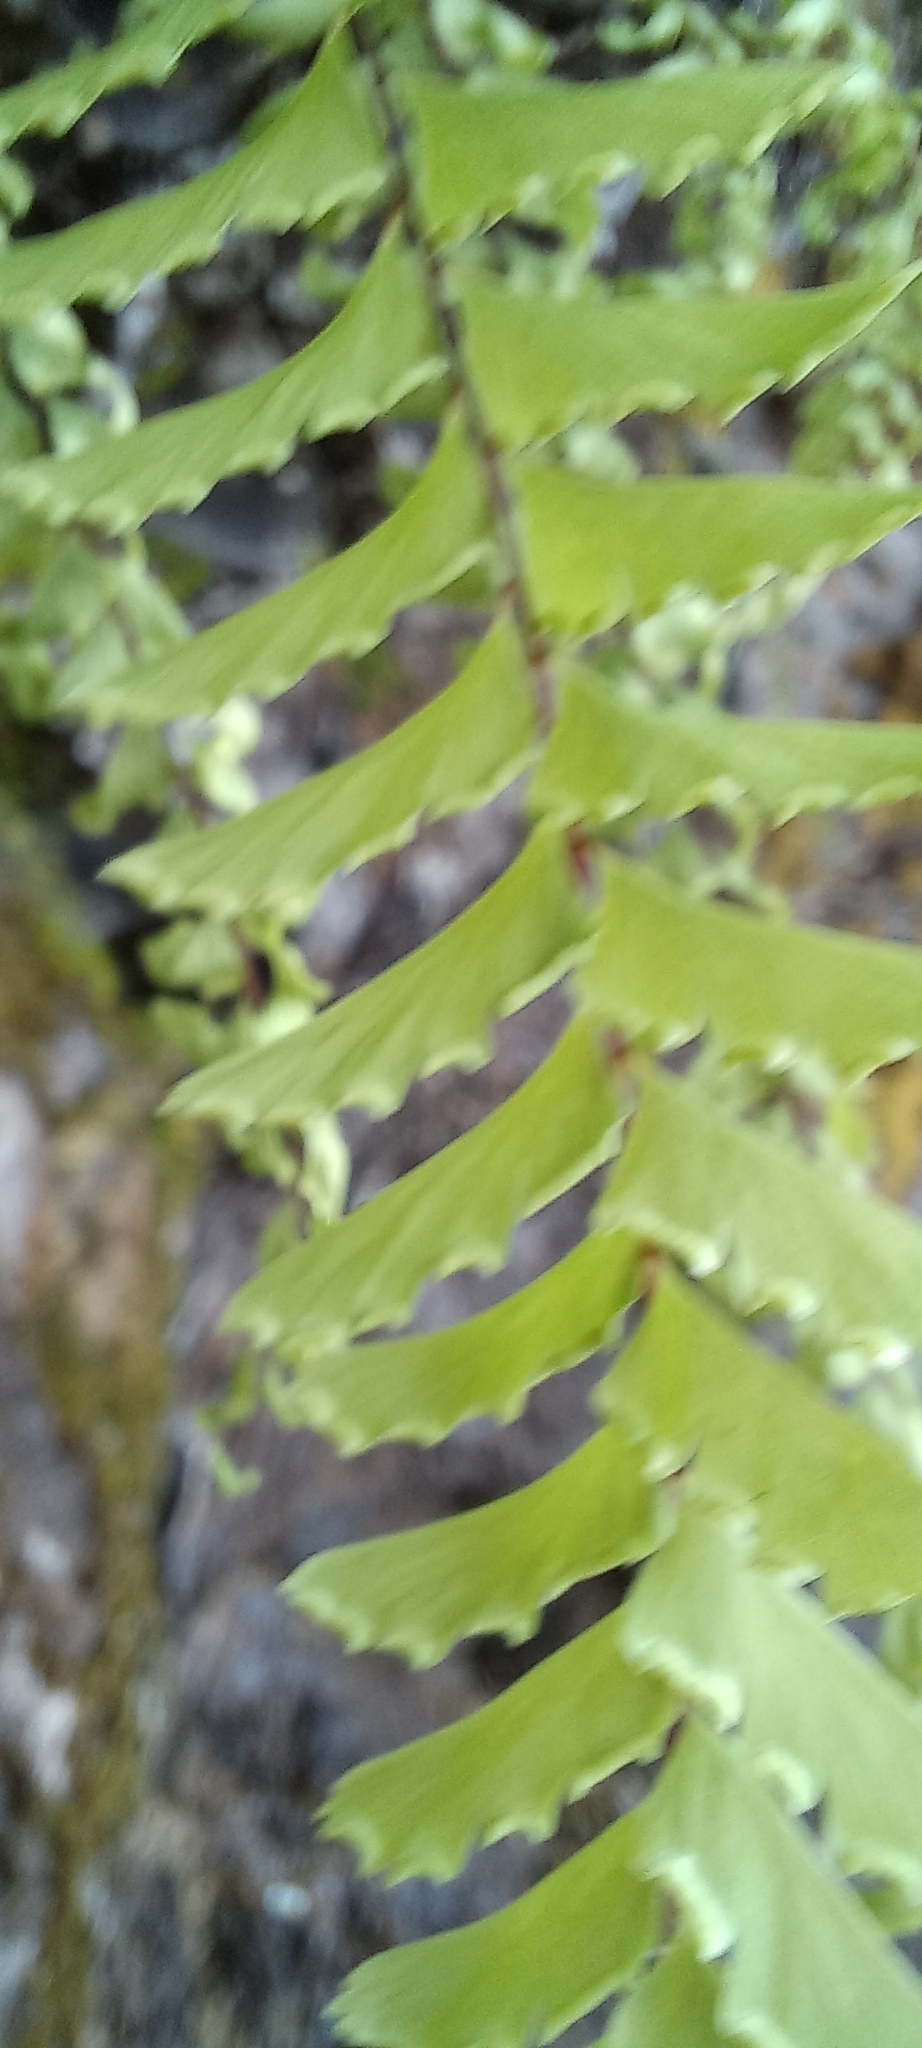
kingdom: Plantae
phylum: Tracheophyta
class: Polypodiopsida
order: Polypodiales
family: Pteridaceae
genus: Adiantum
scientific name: Adiantum aleuticum
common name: Aleutian maidenhair fern
